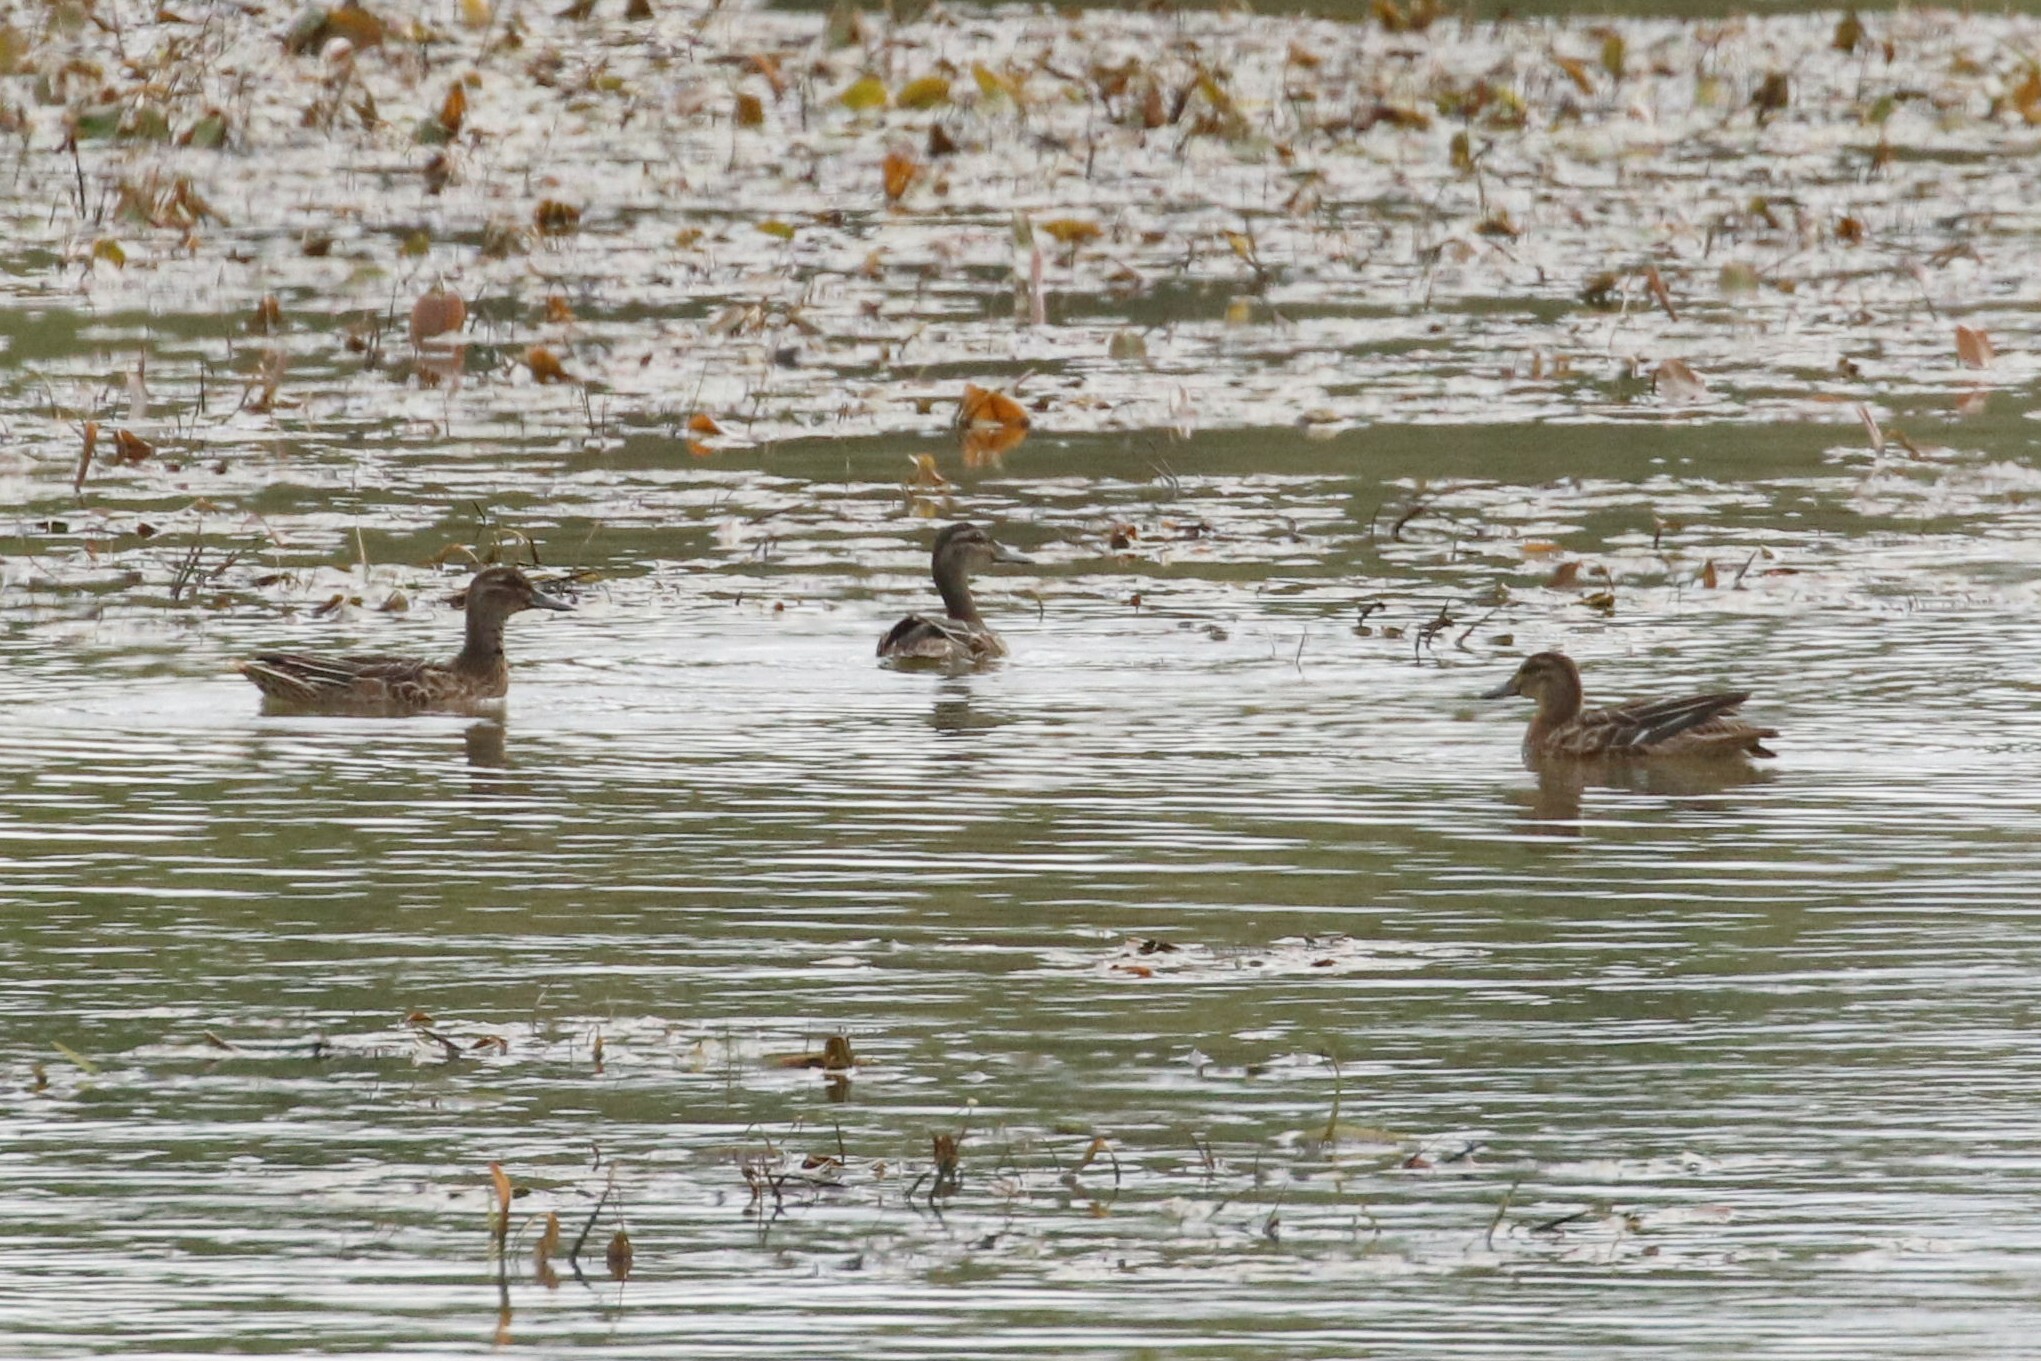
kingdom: Animalia
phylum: Chordata
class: Aves
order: Anseriformes
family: Anatidae
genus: Spatula
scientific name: Spatula querquedula
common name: Garganey
